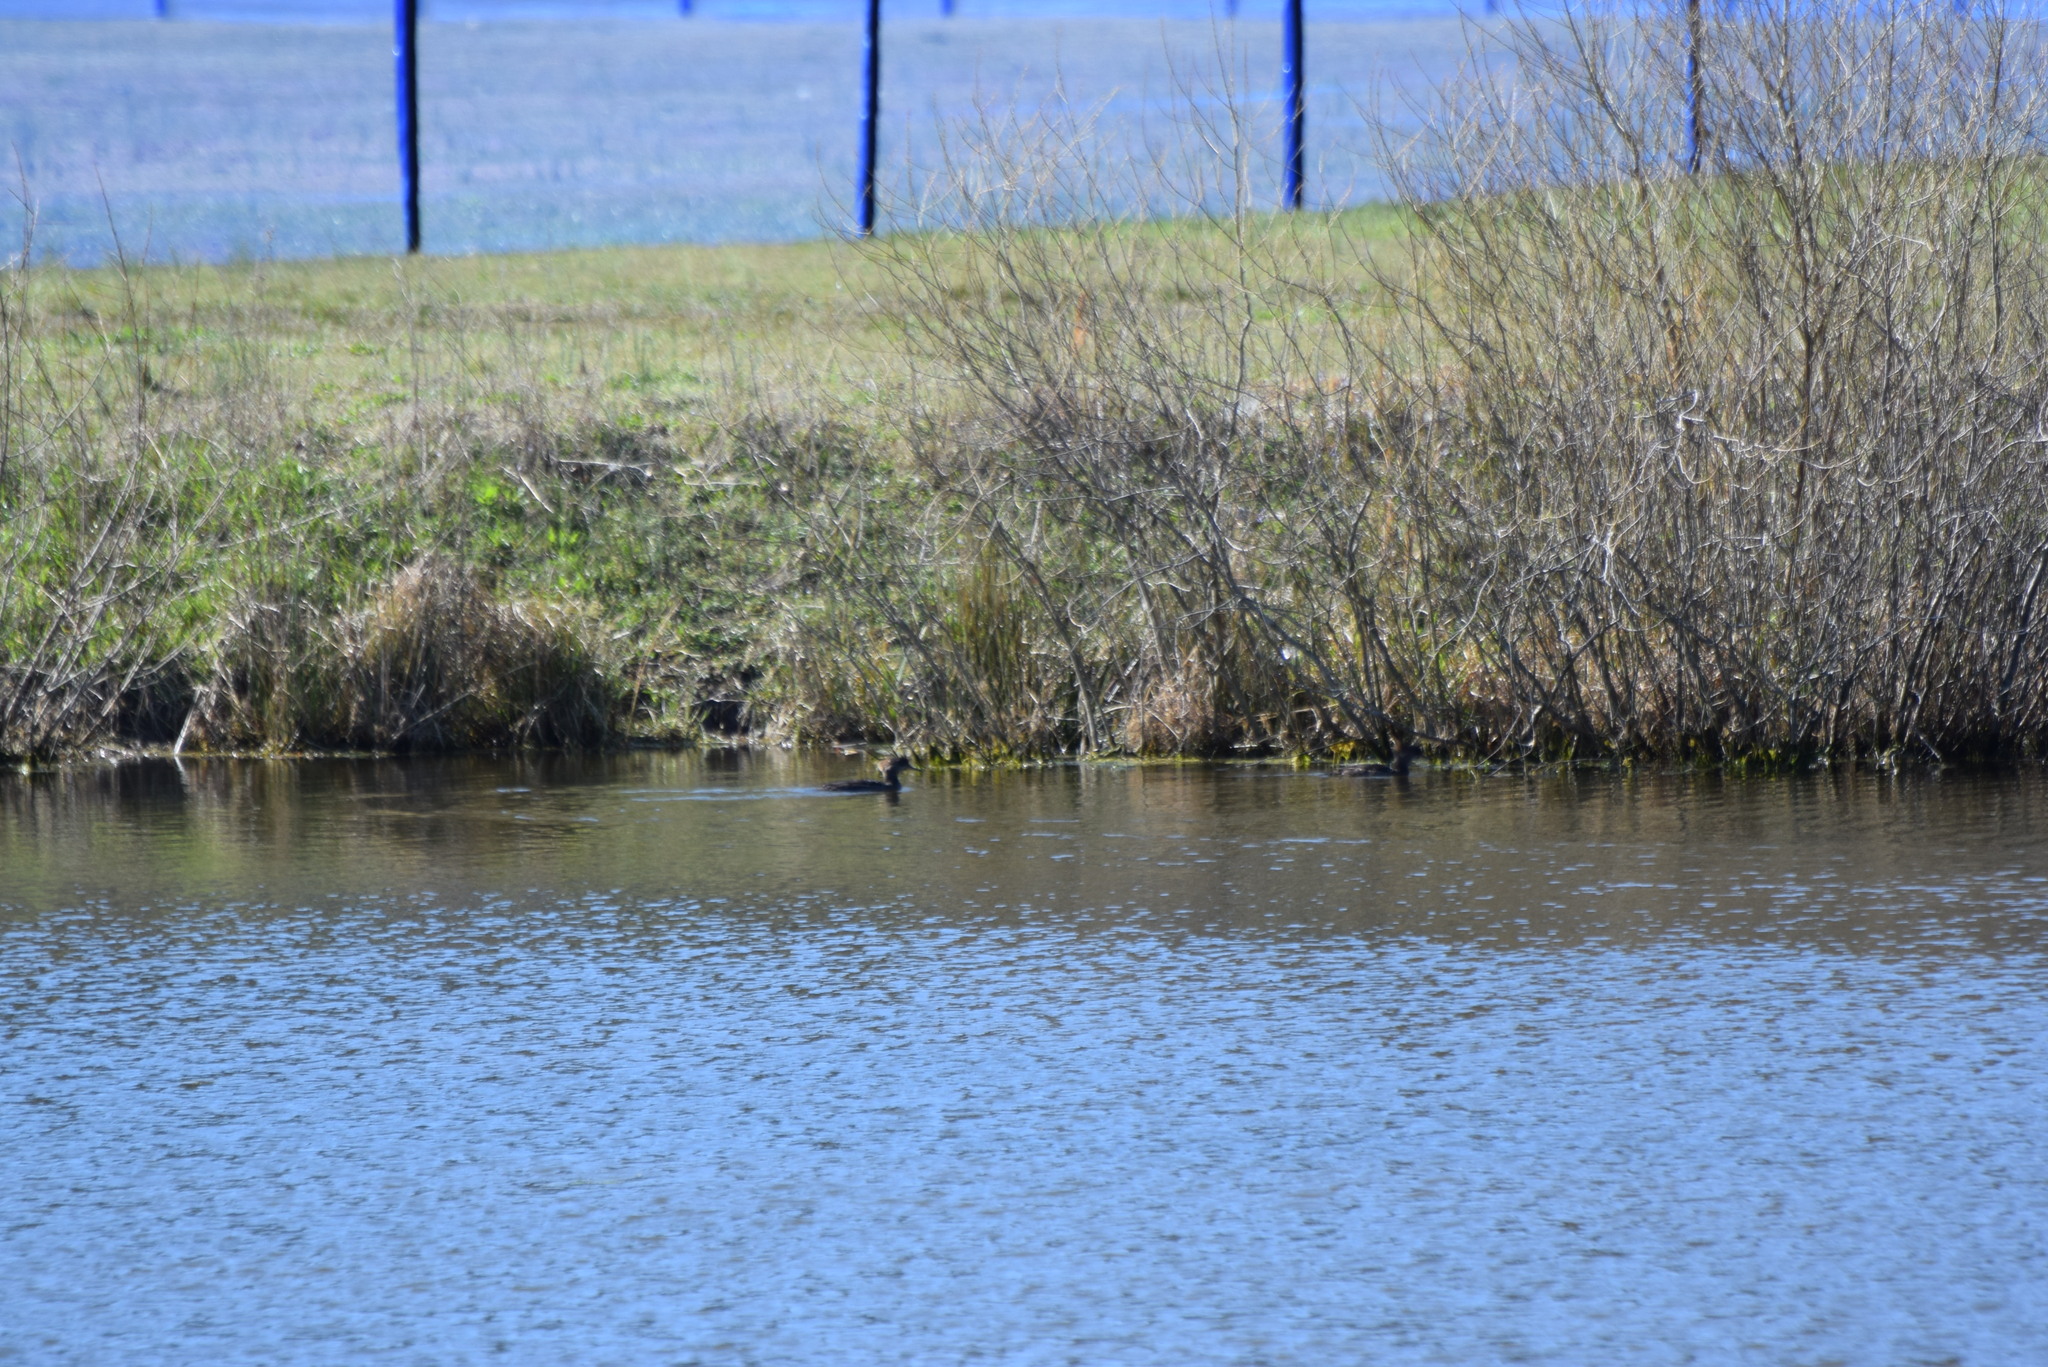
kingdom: Animalia
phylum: Chordata
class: Aves
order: Anseriformes
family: Anatidae
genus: Mergus
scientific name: Mergus serrator
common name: Red-breasted merganser
